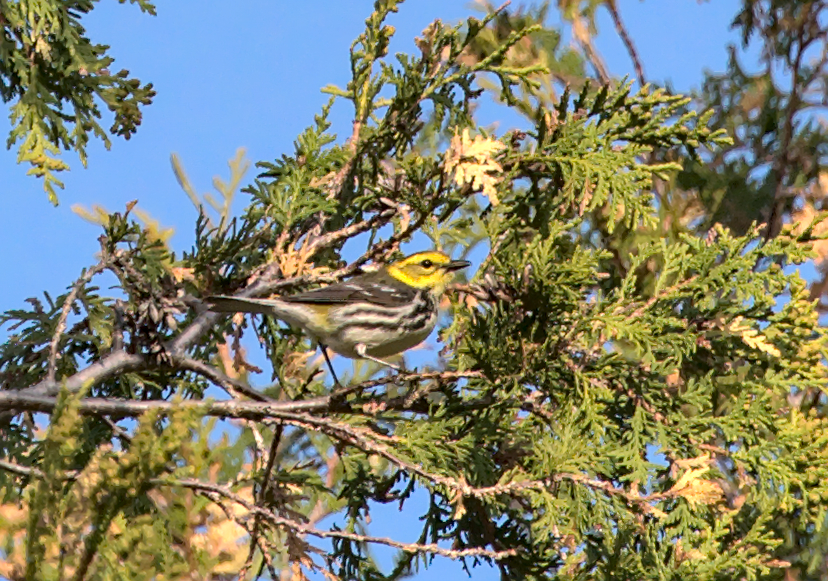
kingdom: Animalia
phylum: Chordata
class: Aves
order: Passeriformes
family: Parulidae
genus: Setophaga
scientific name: Setophaga virens
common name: Black-throated green warbler
